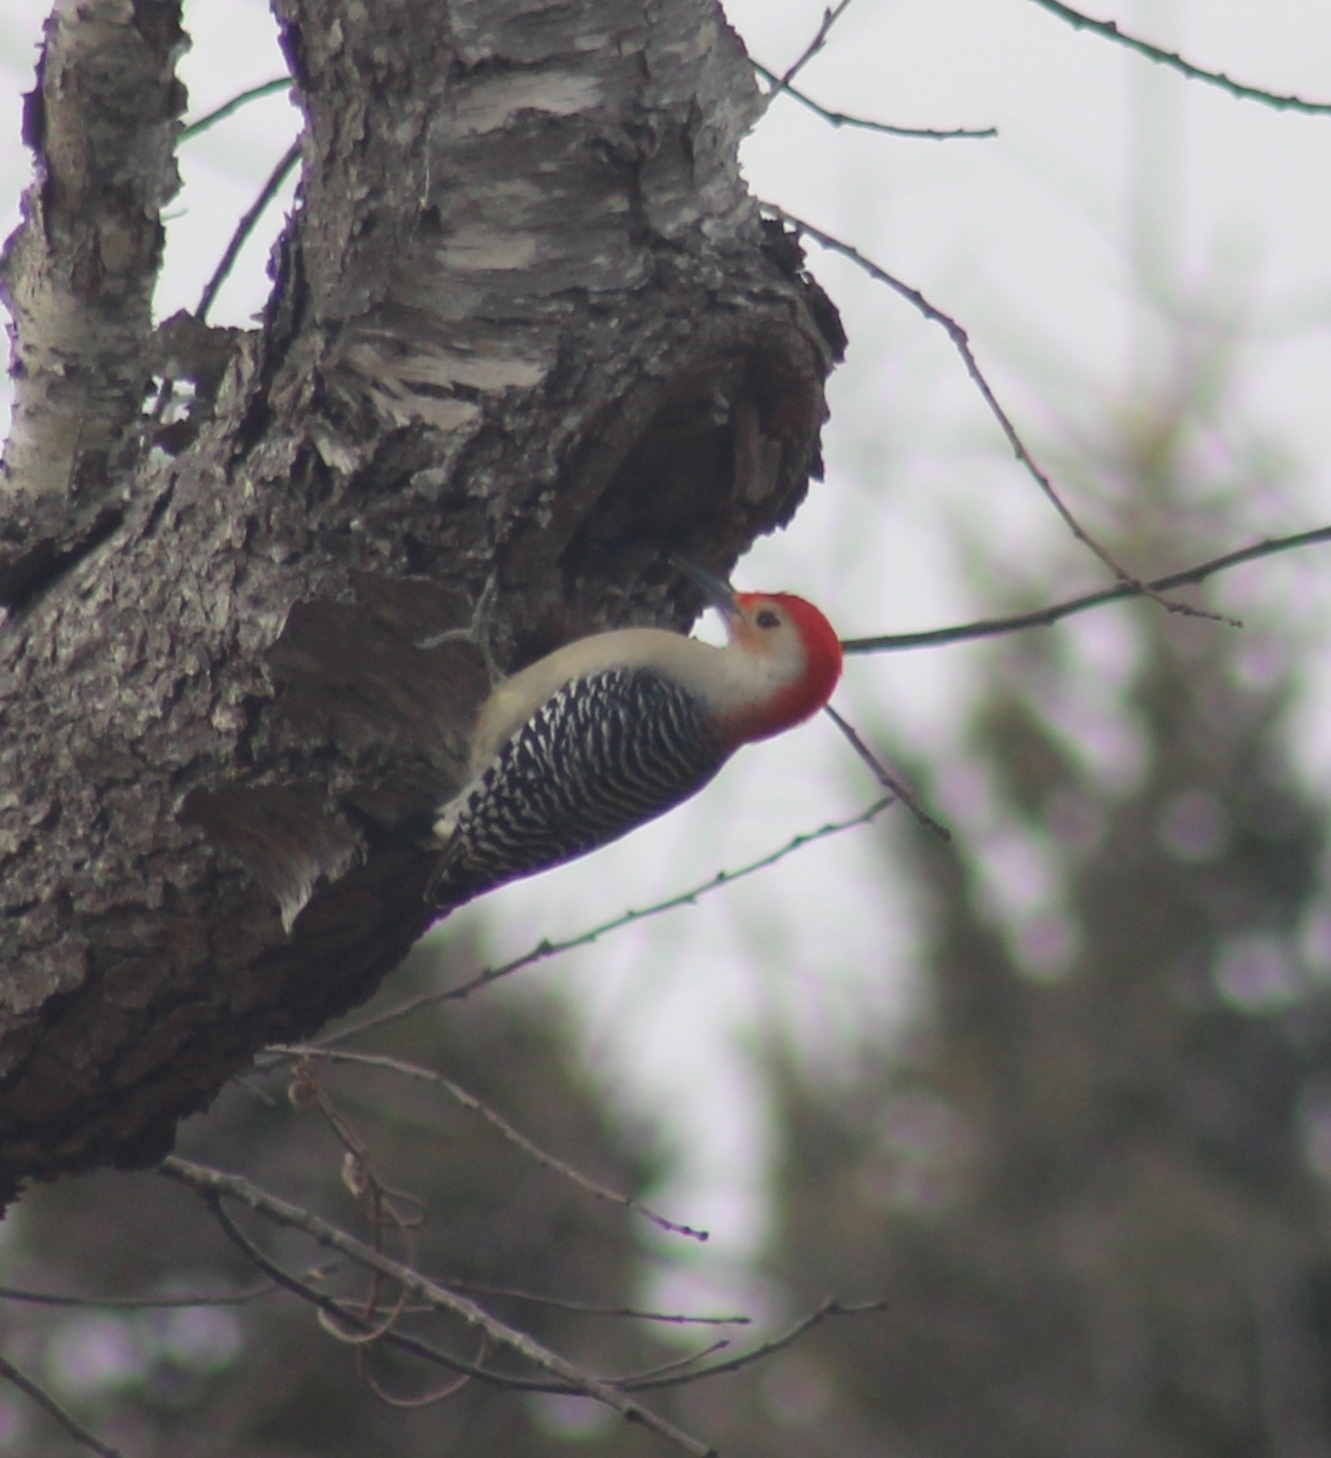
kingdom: Animalia
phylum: Chordata
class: Aves
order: Piciformes
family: Picidae
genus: Melanerpes
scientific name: Melanerpes carolinus
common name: Red-bellied woodpecker
